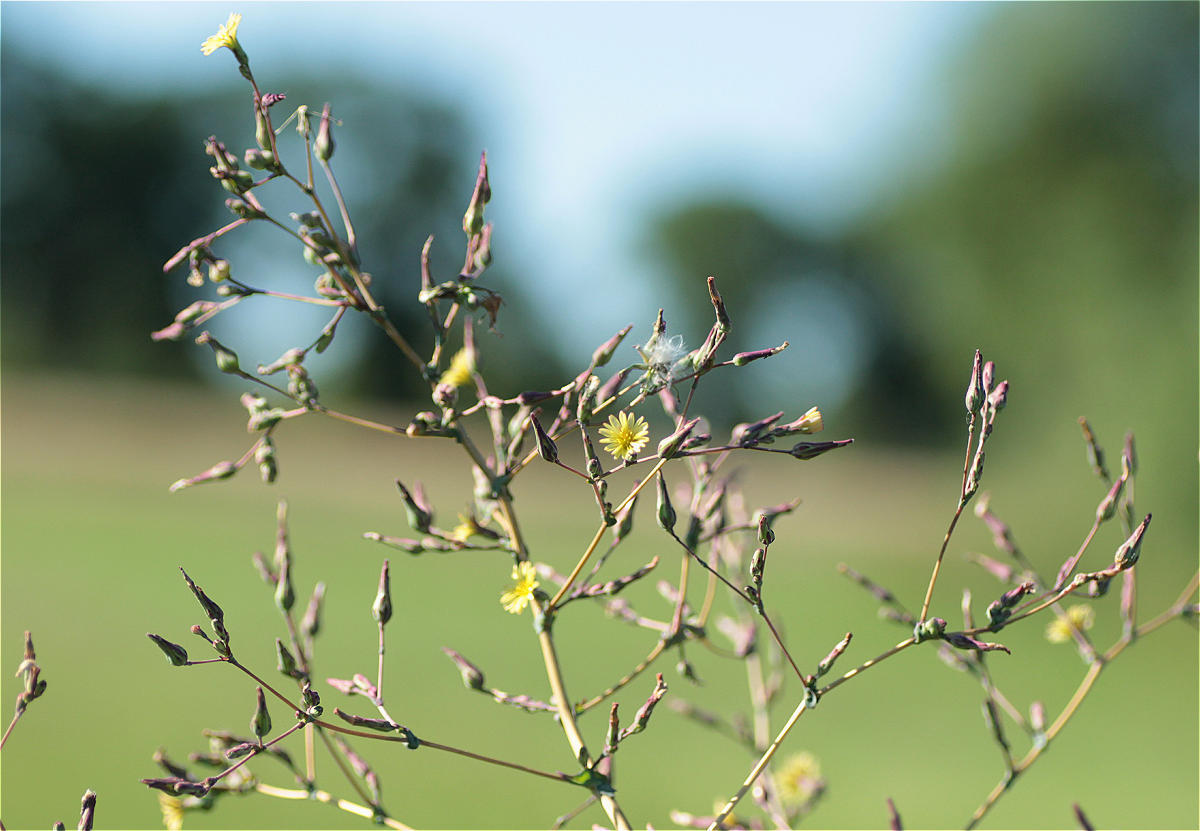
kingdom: Plantae
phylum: Tracheophyta
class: Magnoliopsida
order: Asterales
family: Asteraceae
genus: Lactuca
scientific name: Lactuca serriola
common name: Prickly lettuce
